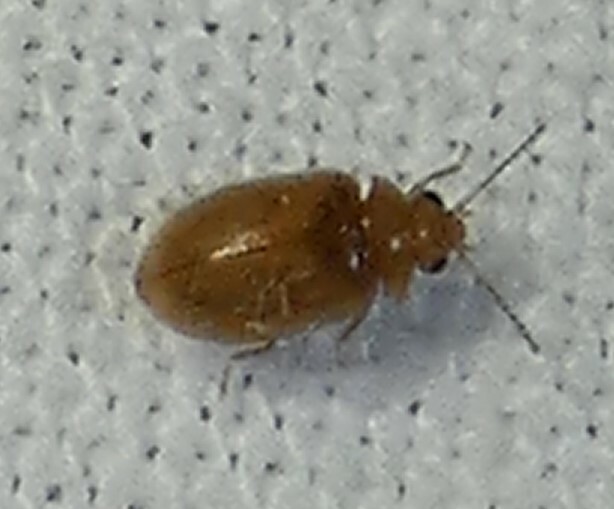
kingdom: Animalia
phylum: Arthropoda
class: Insecta
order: Coleoptera
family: Scirtidae
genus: Contacyphon
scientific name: Contacyphon
